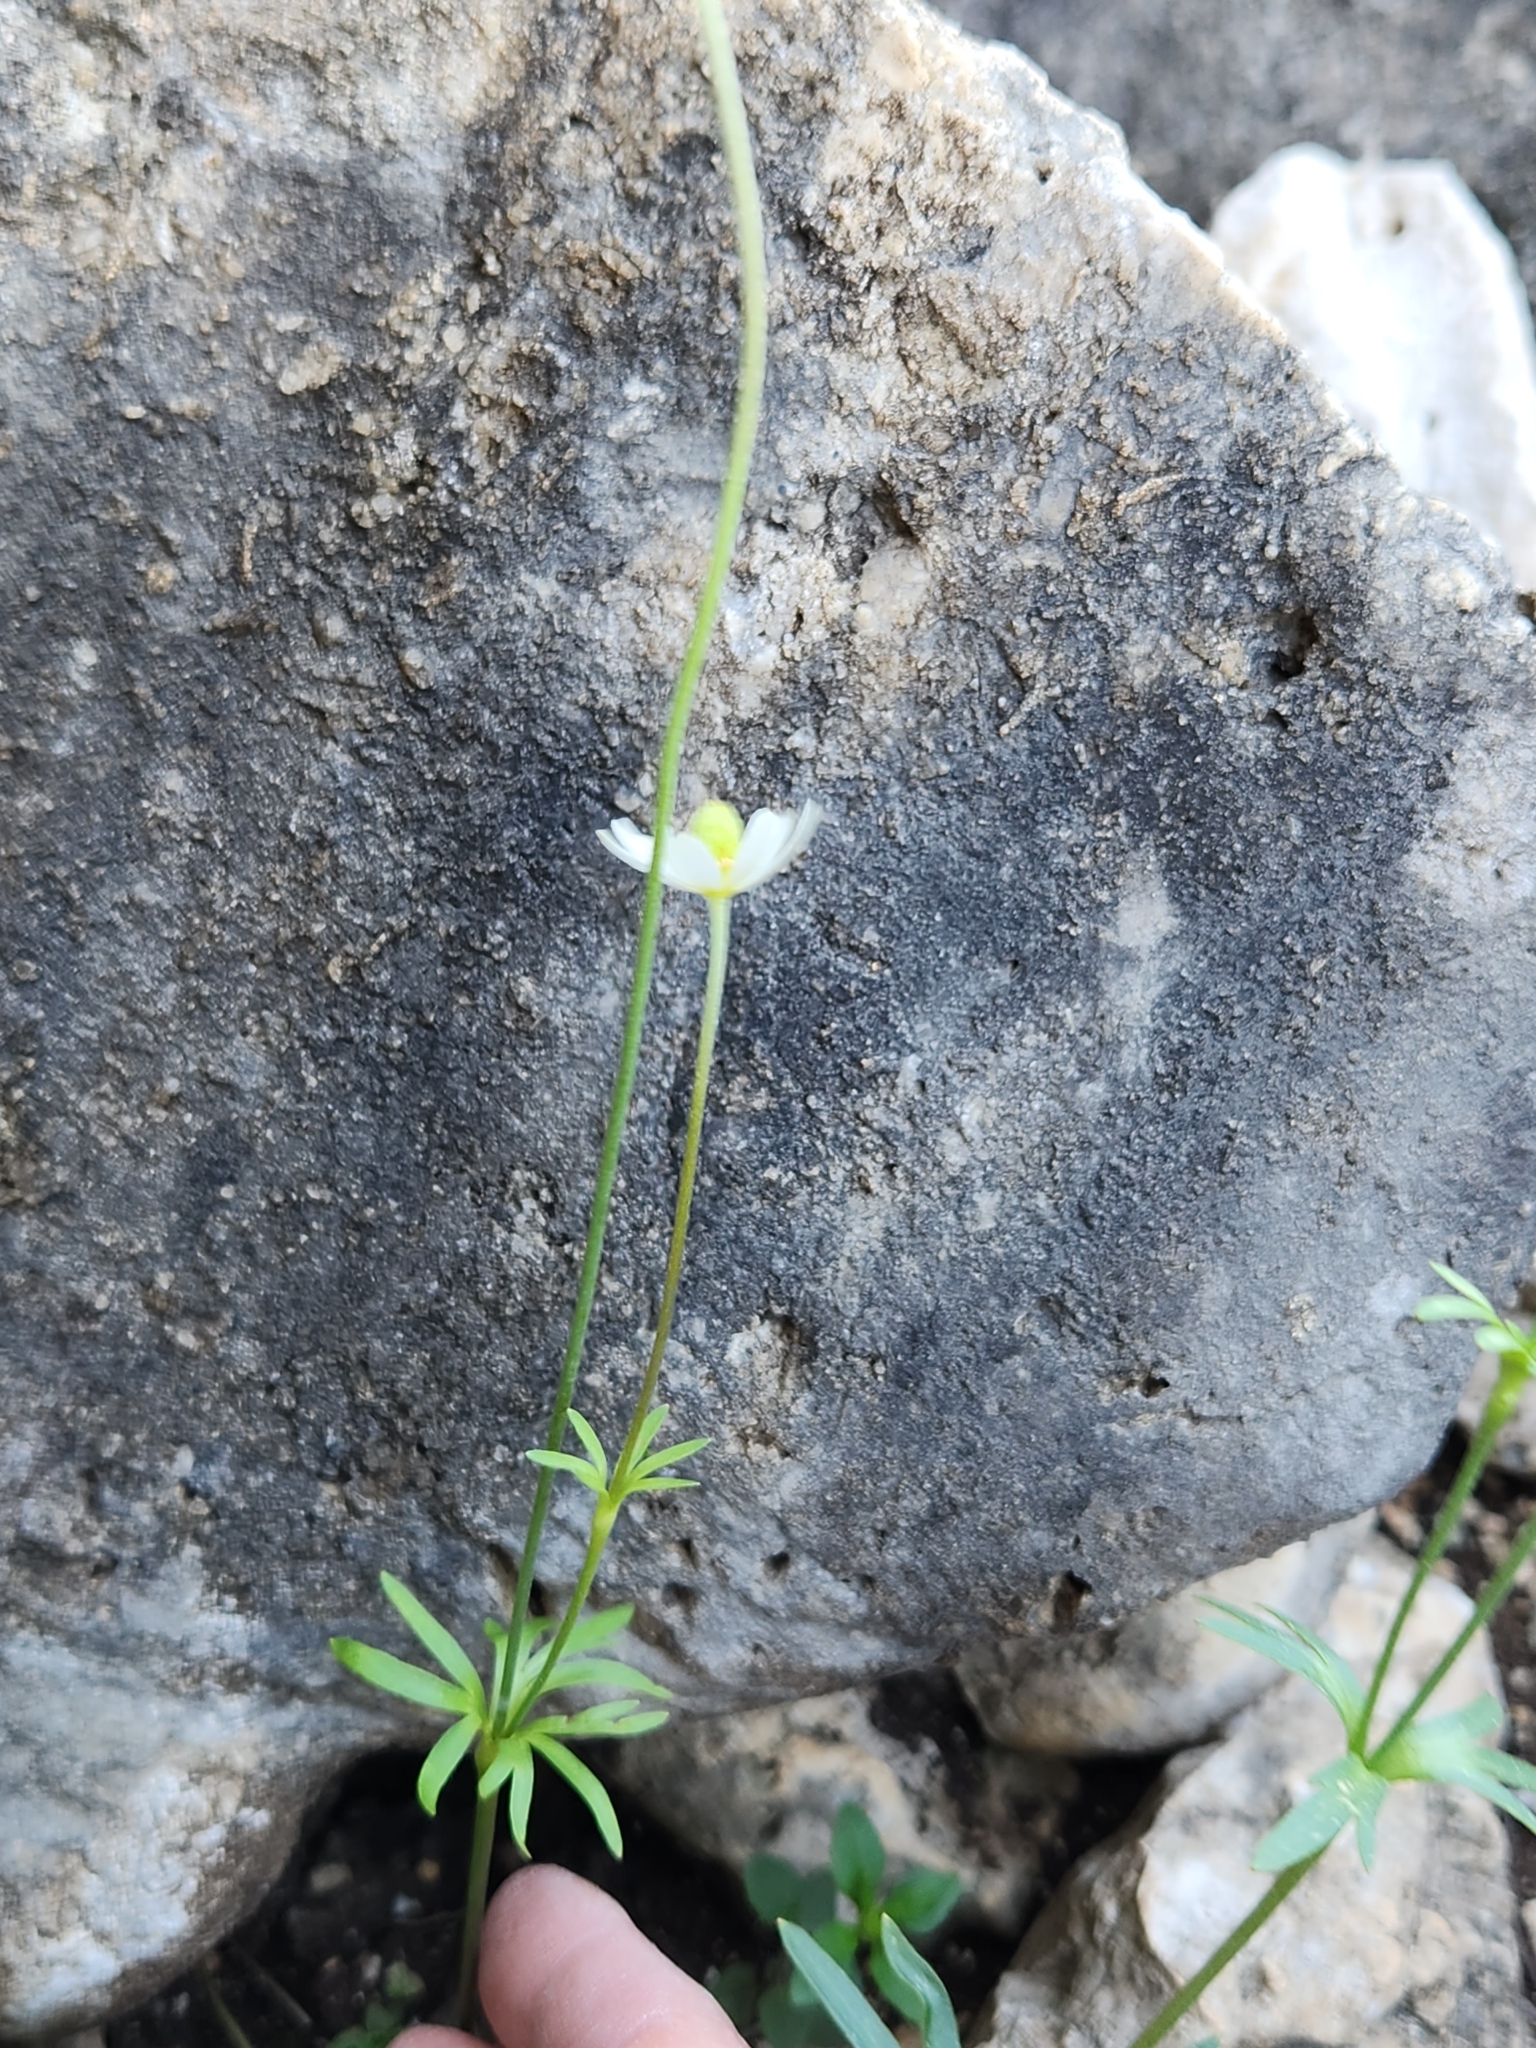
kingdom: Plantae
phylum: Tracheophyta
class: Magnoliopsida
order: Ranunculales
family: Ranunculaceae
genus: Anemone
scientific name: Anemone edwardsiana
